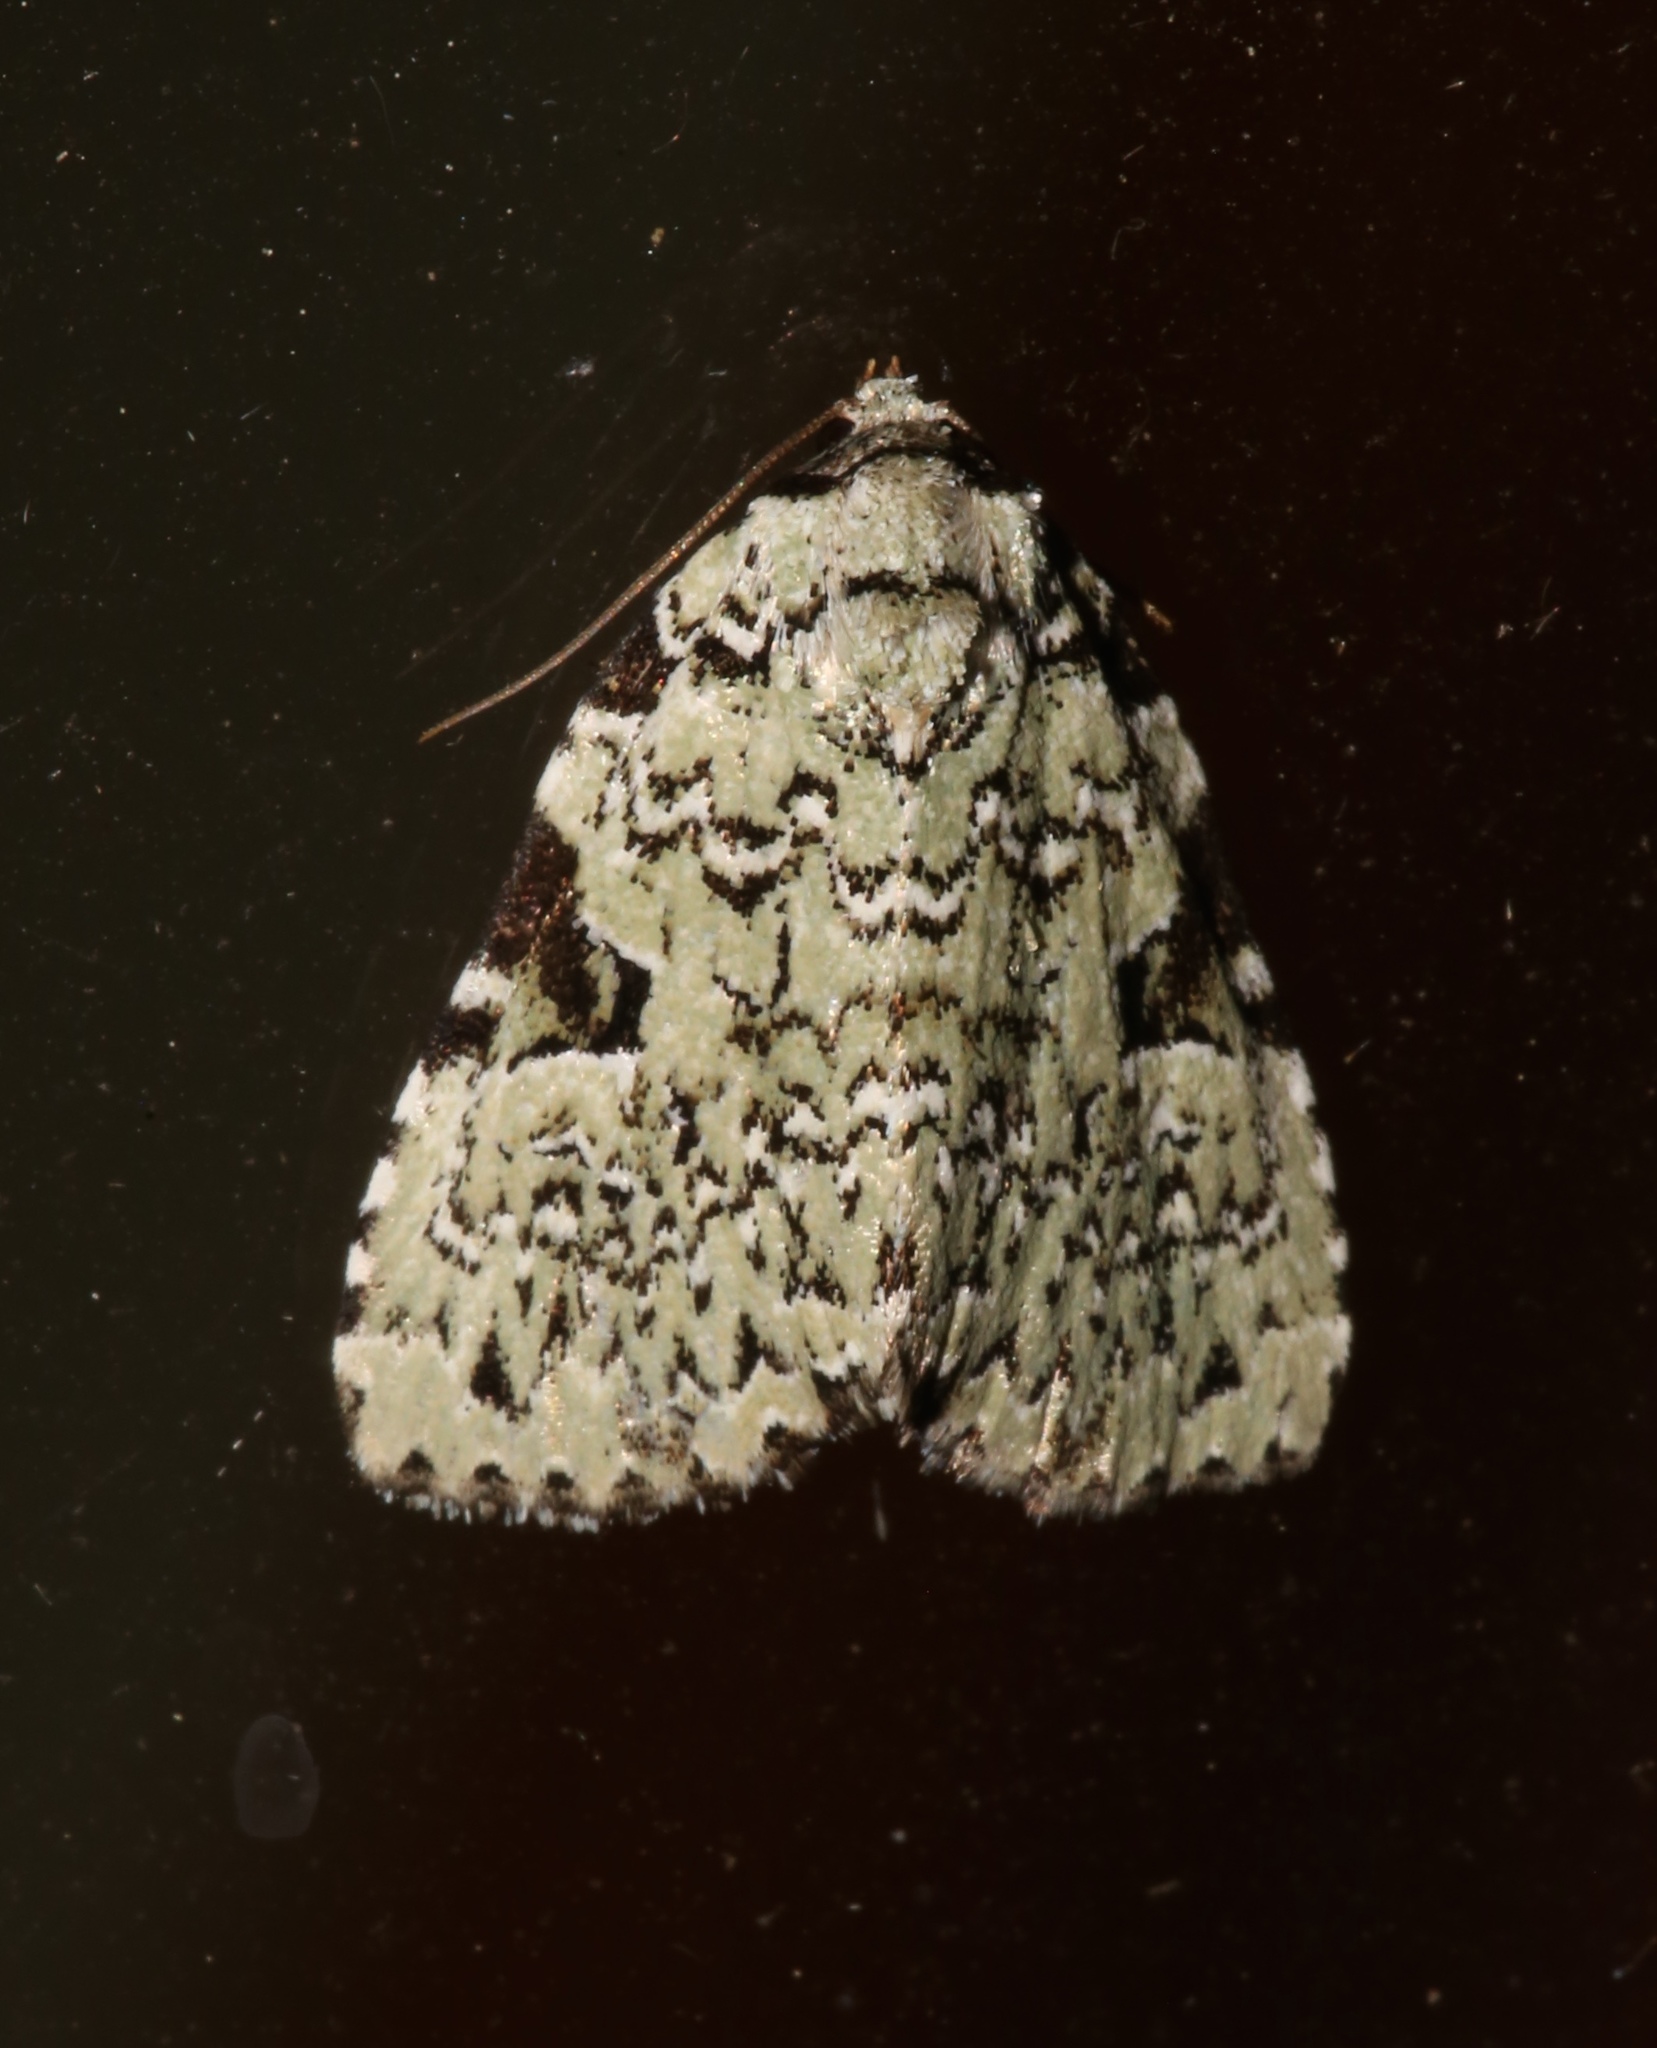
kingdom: Animalia
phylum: Arthropoda
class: Insecta
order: Lepidoptera
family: Noctuidae
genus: Leuconycta
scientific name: Leuconycta diphteroides
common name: Green leuconycta moth
